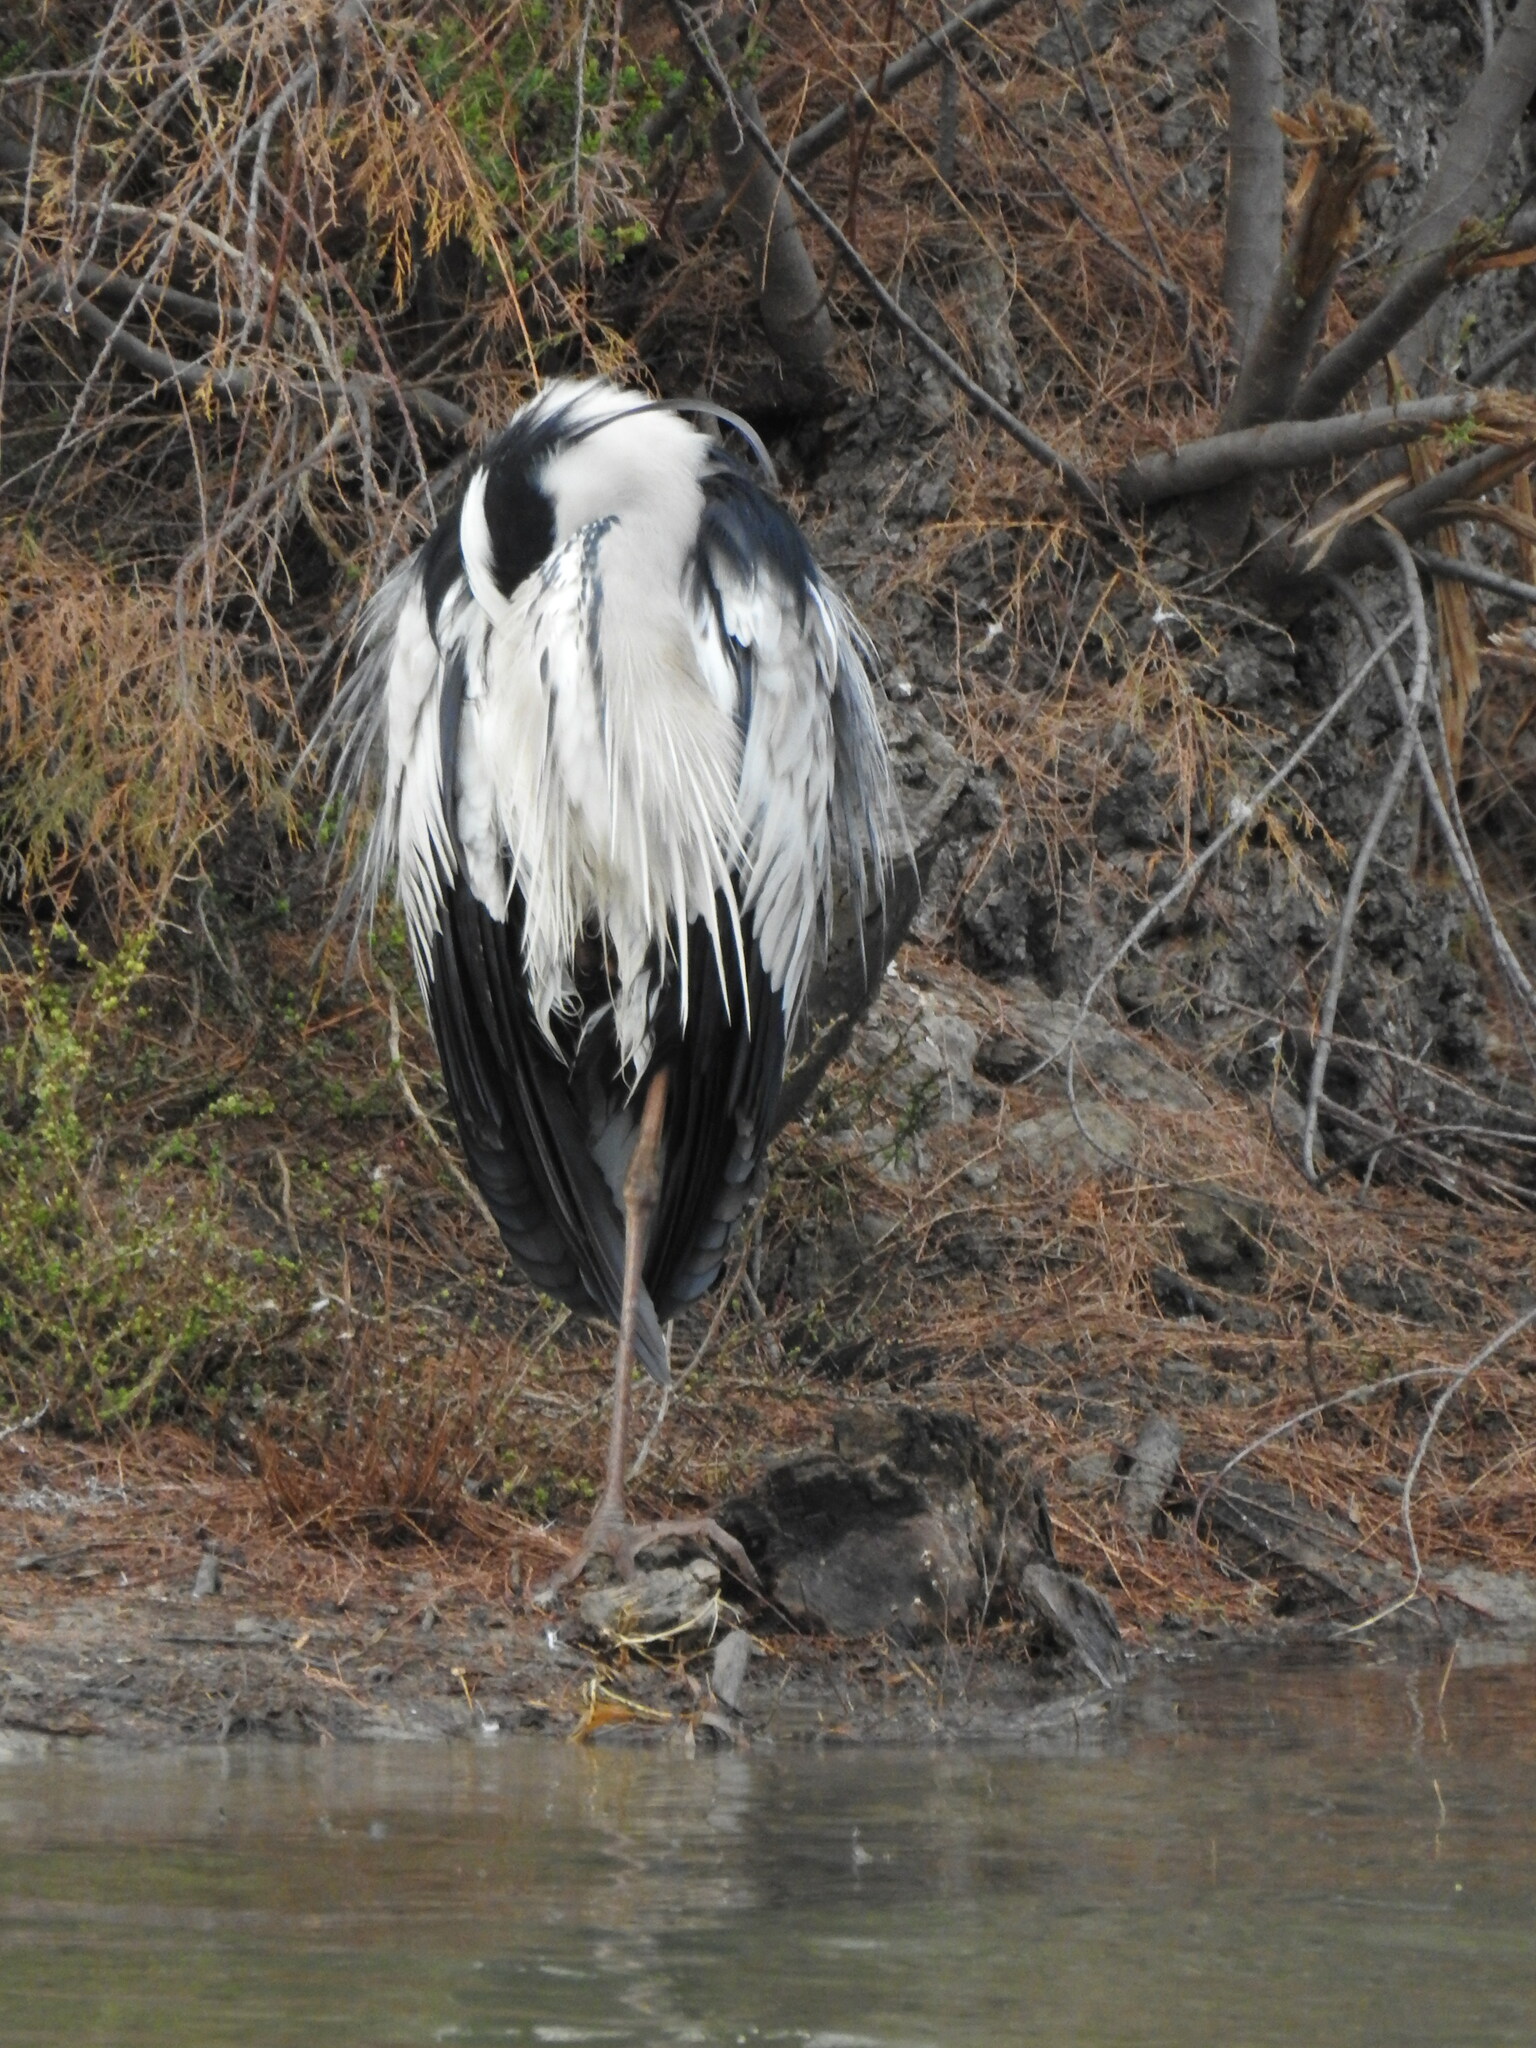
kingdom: Animalia
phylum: Chordata
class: Aves
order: Pelecaniformes
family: Ardeidae
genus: Ardea
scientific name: Ardea cinerea
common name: Grey heron
